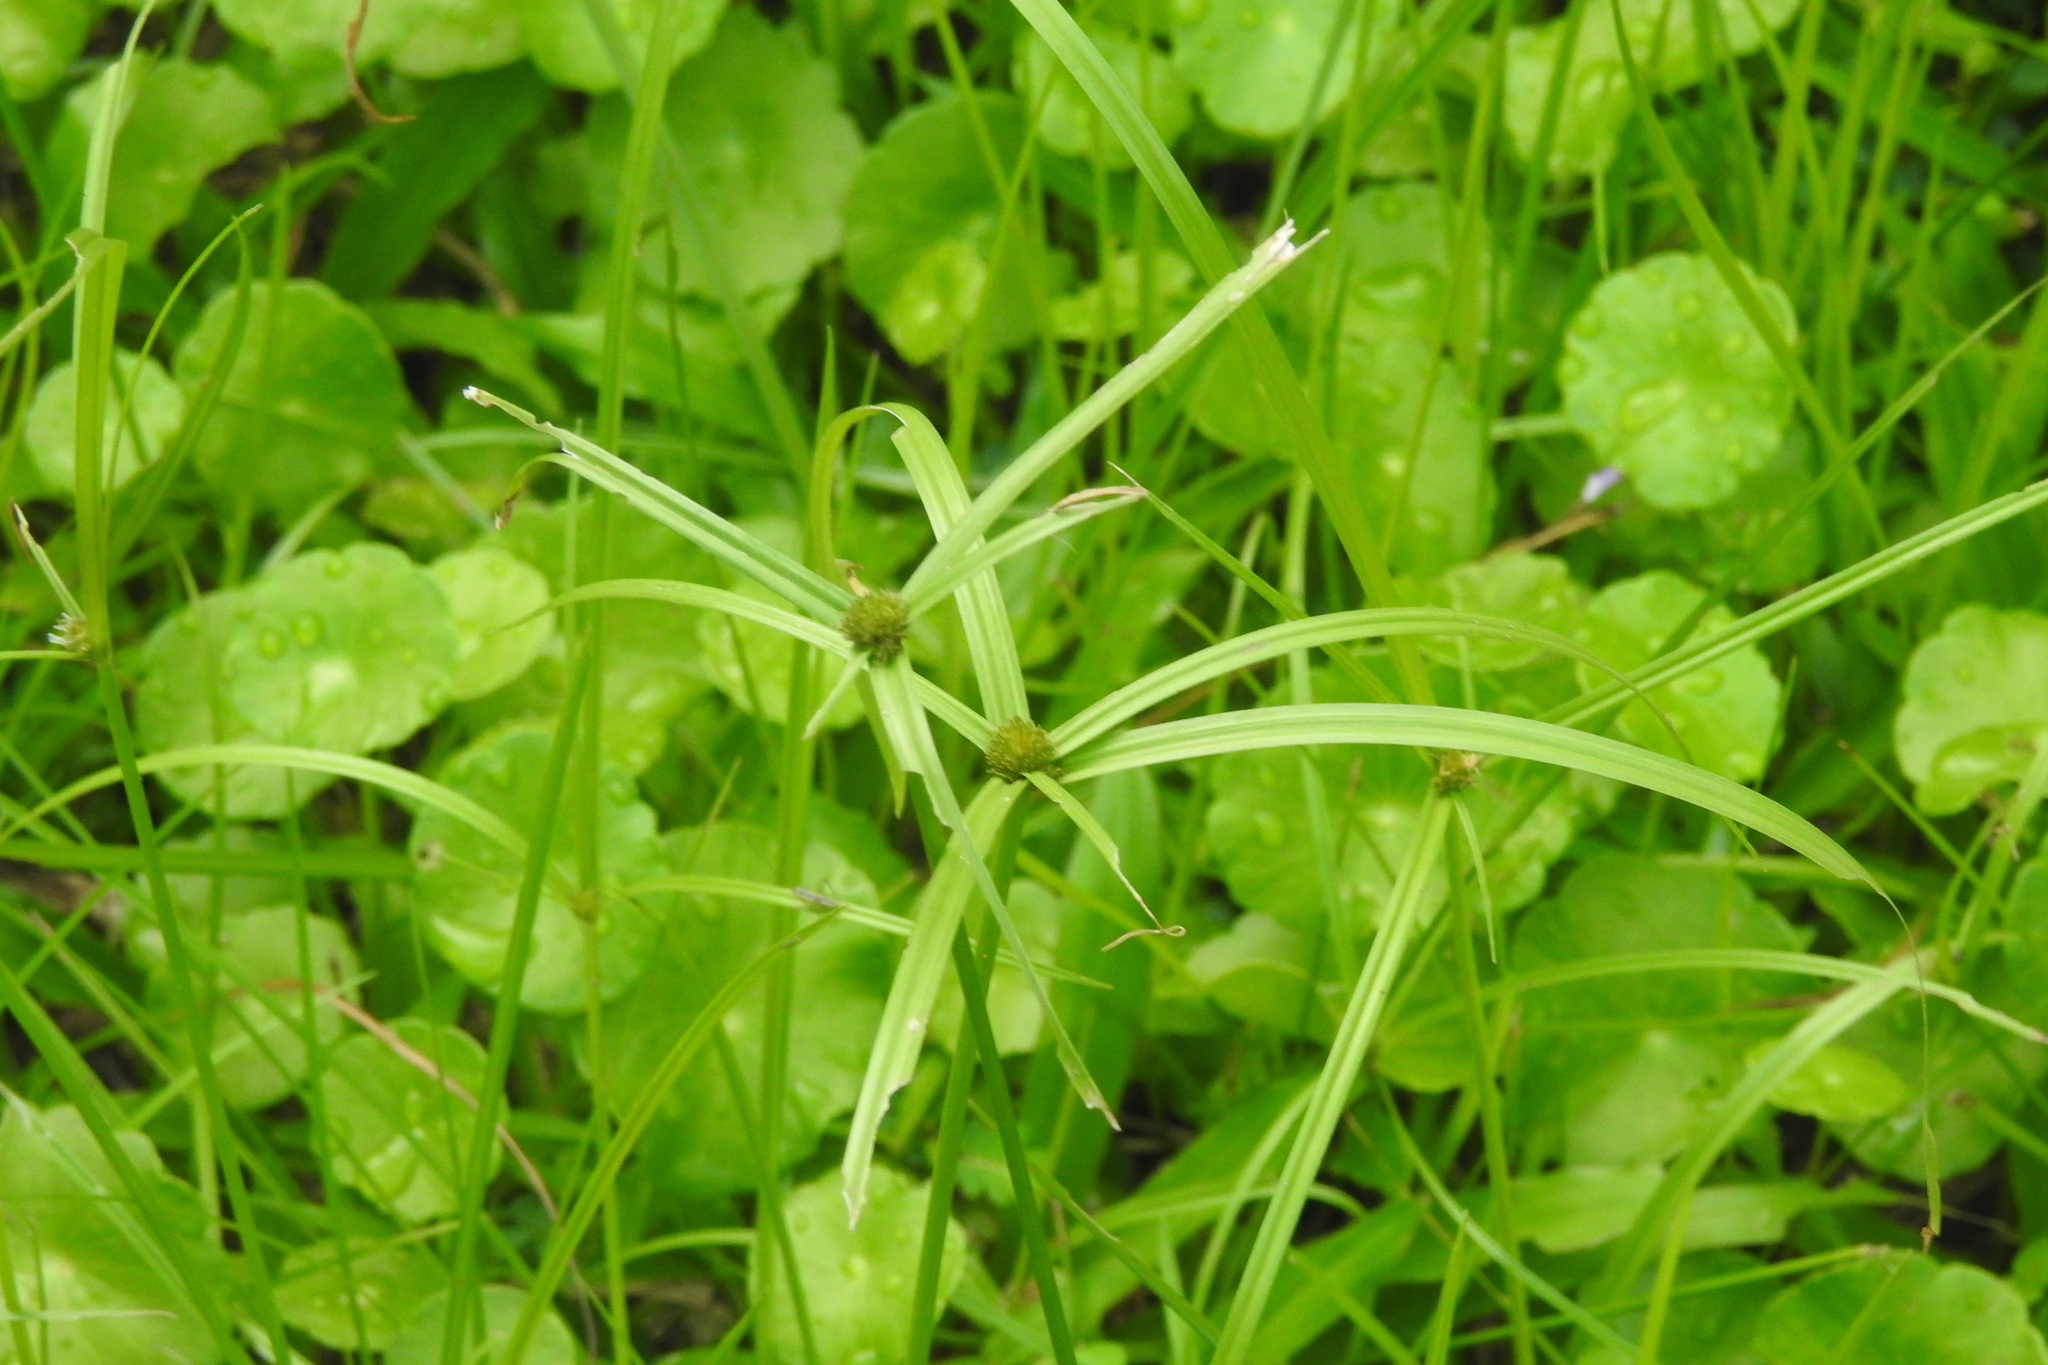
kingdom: Plantae
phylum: Tracheophyta
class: Liliopsida
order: Poales
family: Cyperaceae
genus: Cyperus
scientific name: Cyperus aromaticus
